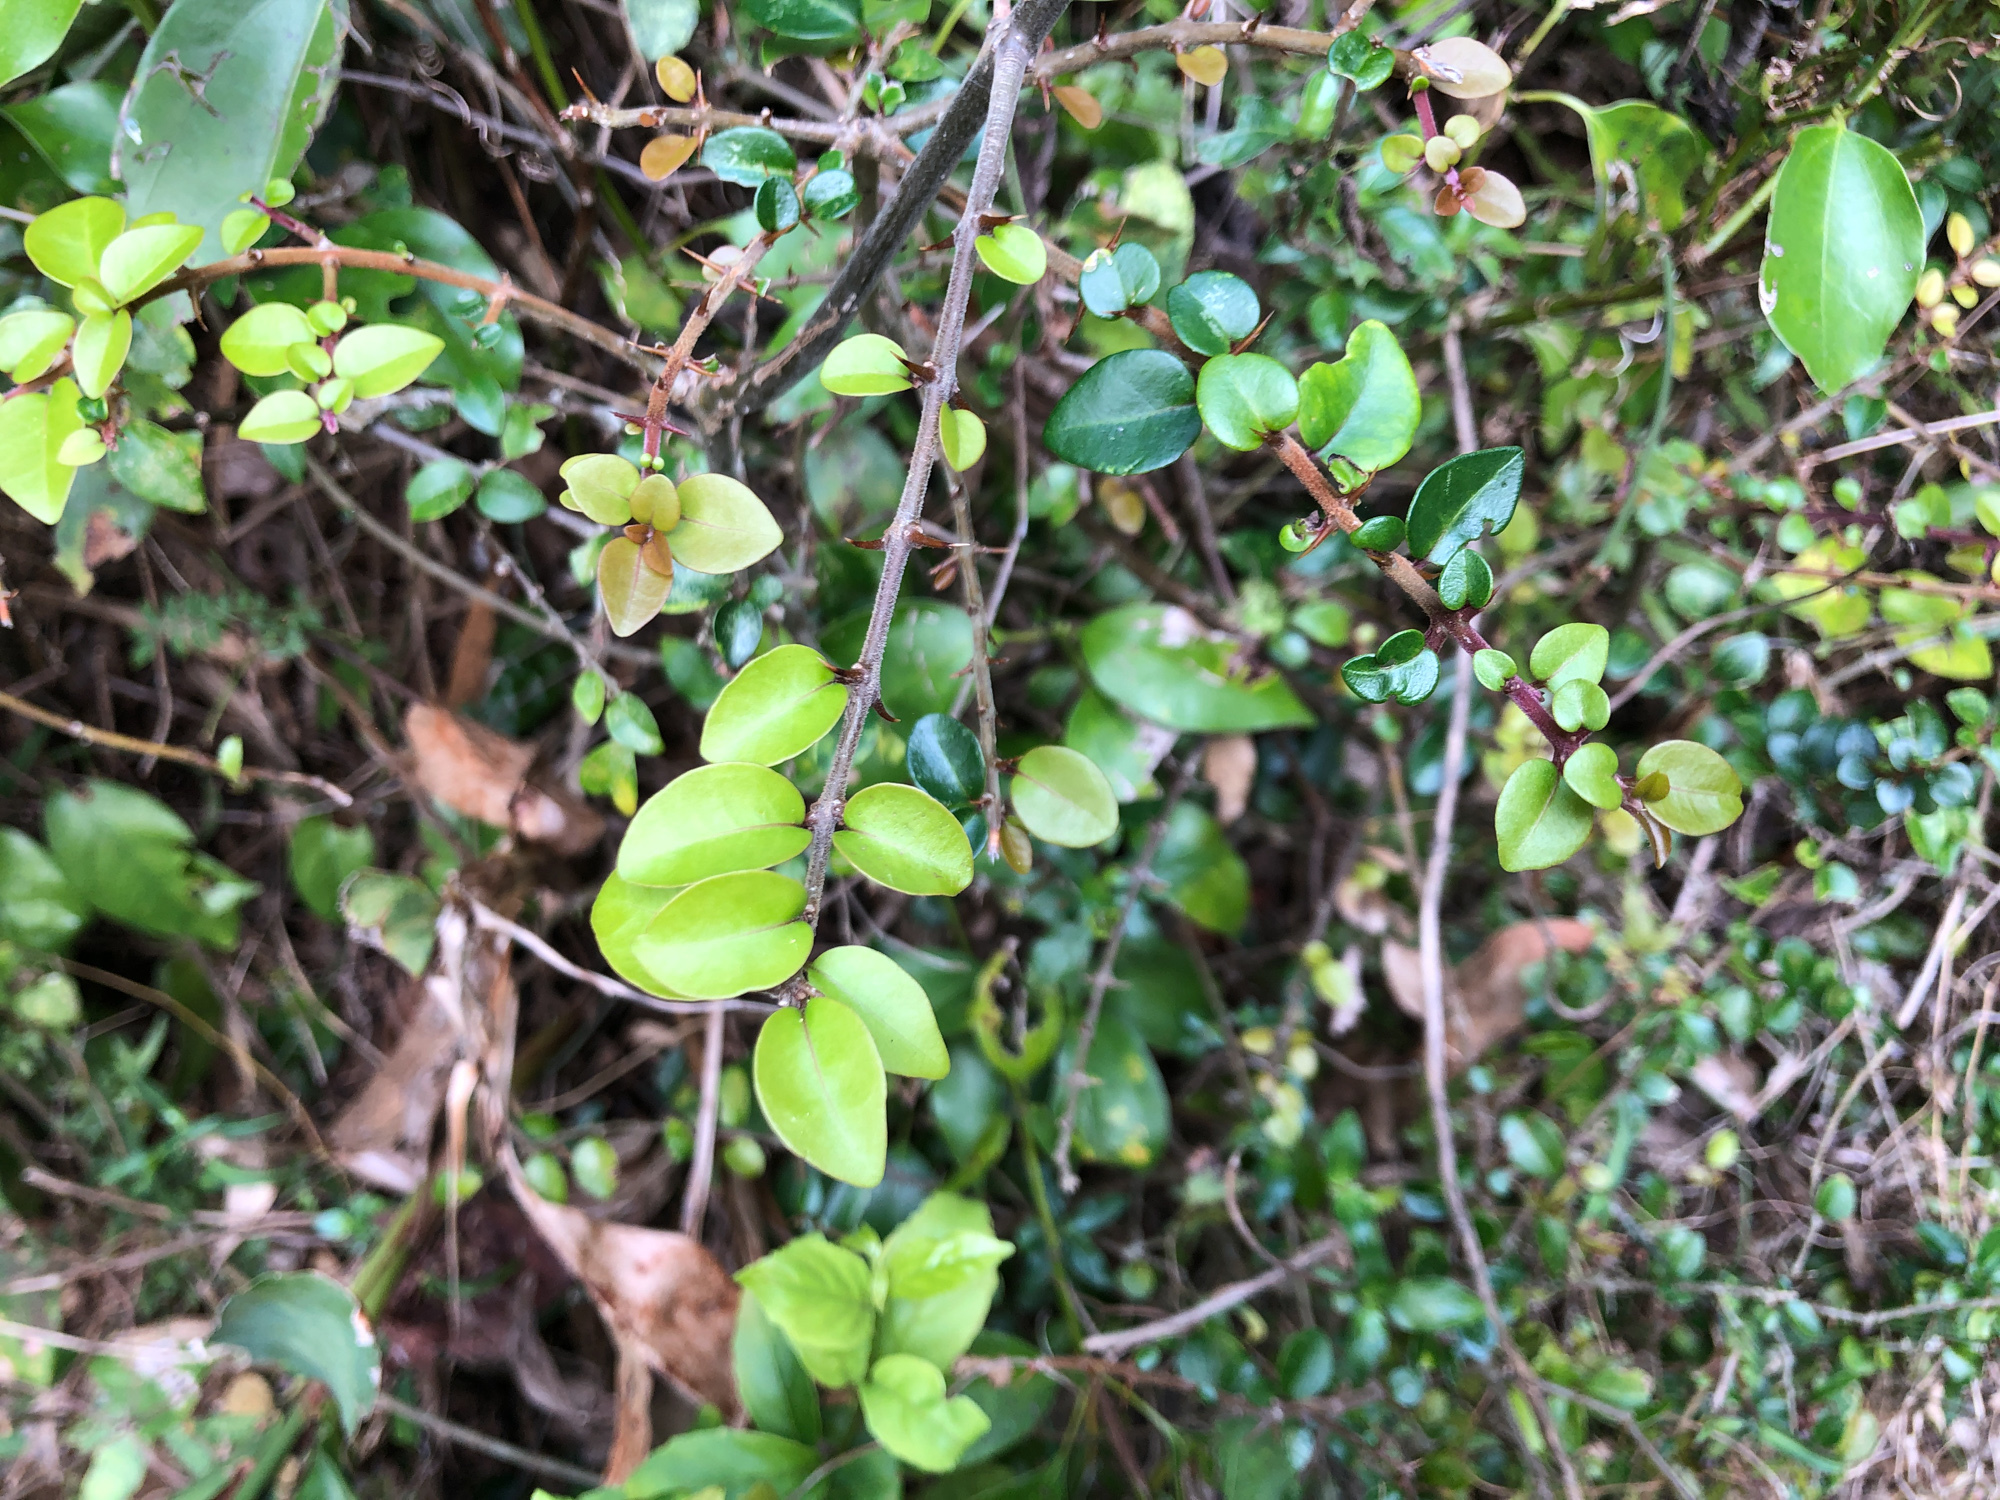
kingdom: Plantae
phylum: Tracheophyta
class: Magnoliopsida
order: Caryophyllales
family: Nyctaginaceae
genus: Pisonia
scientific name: Pisonia aculeata
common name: Cockspur vine
